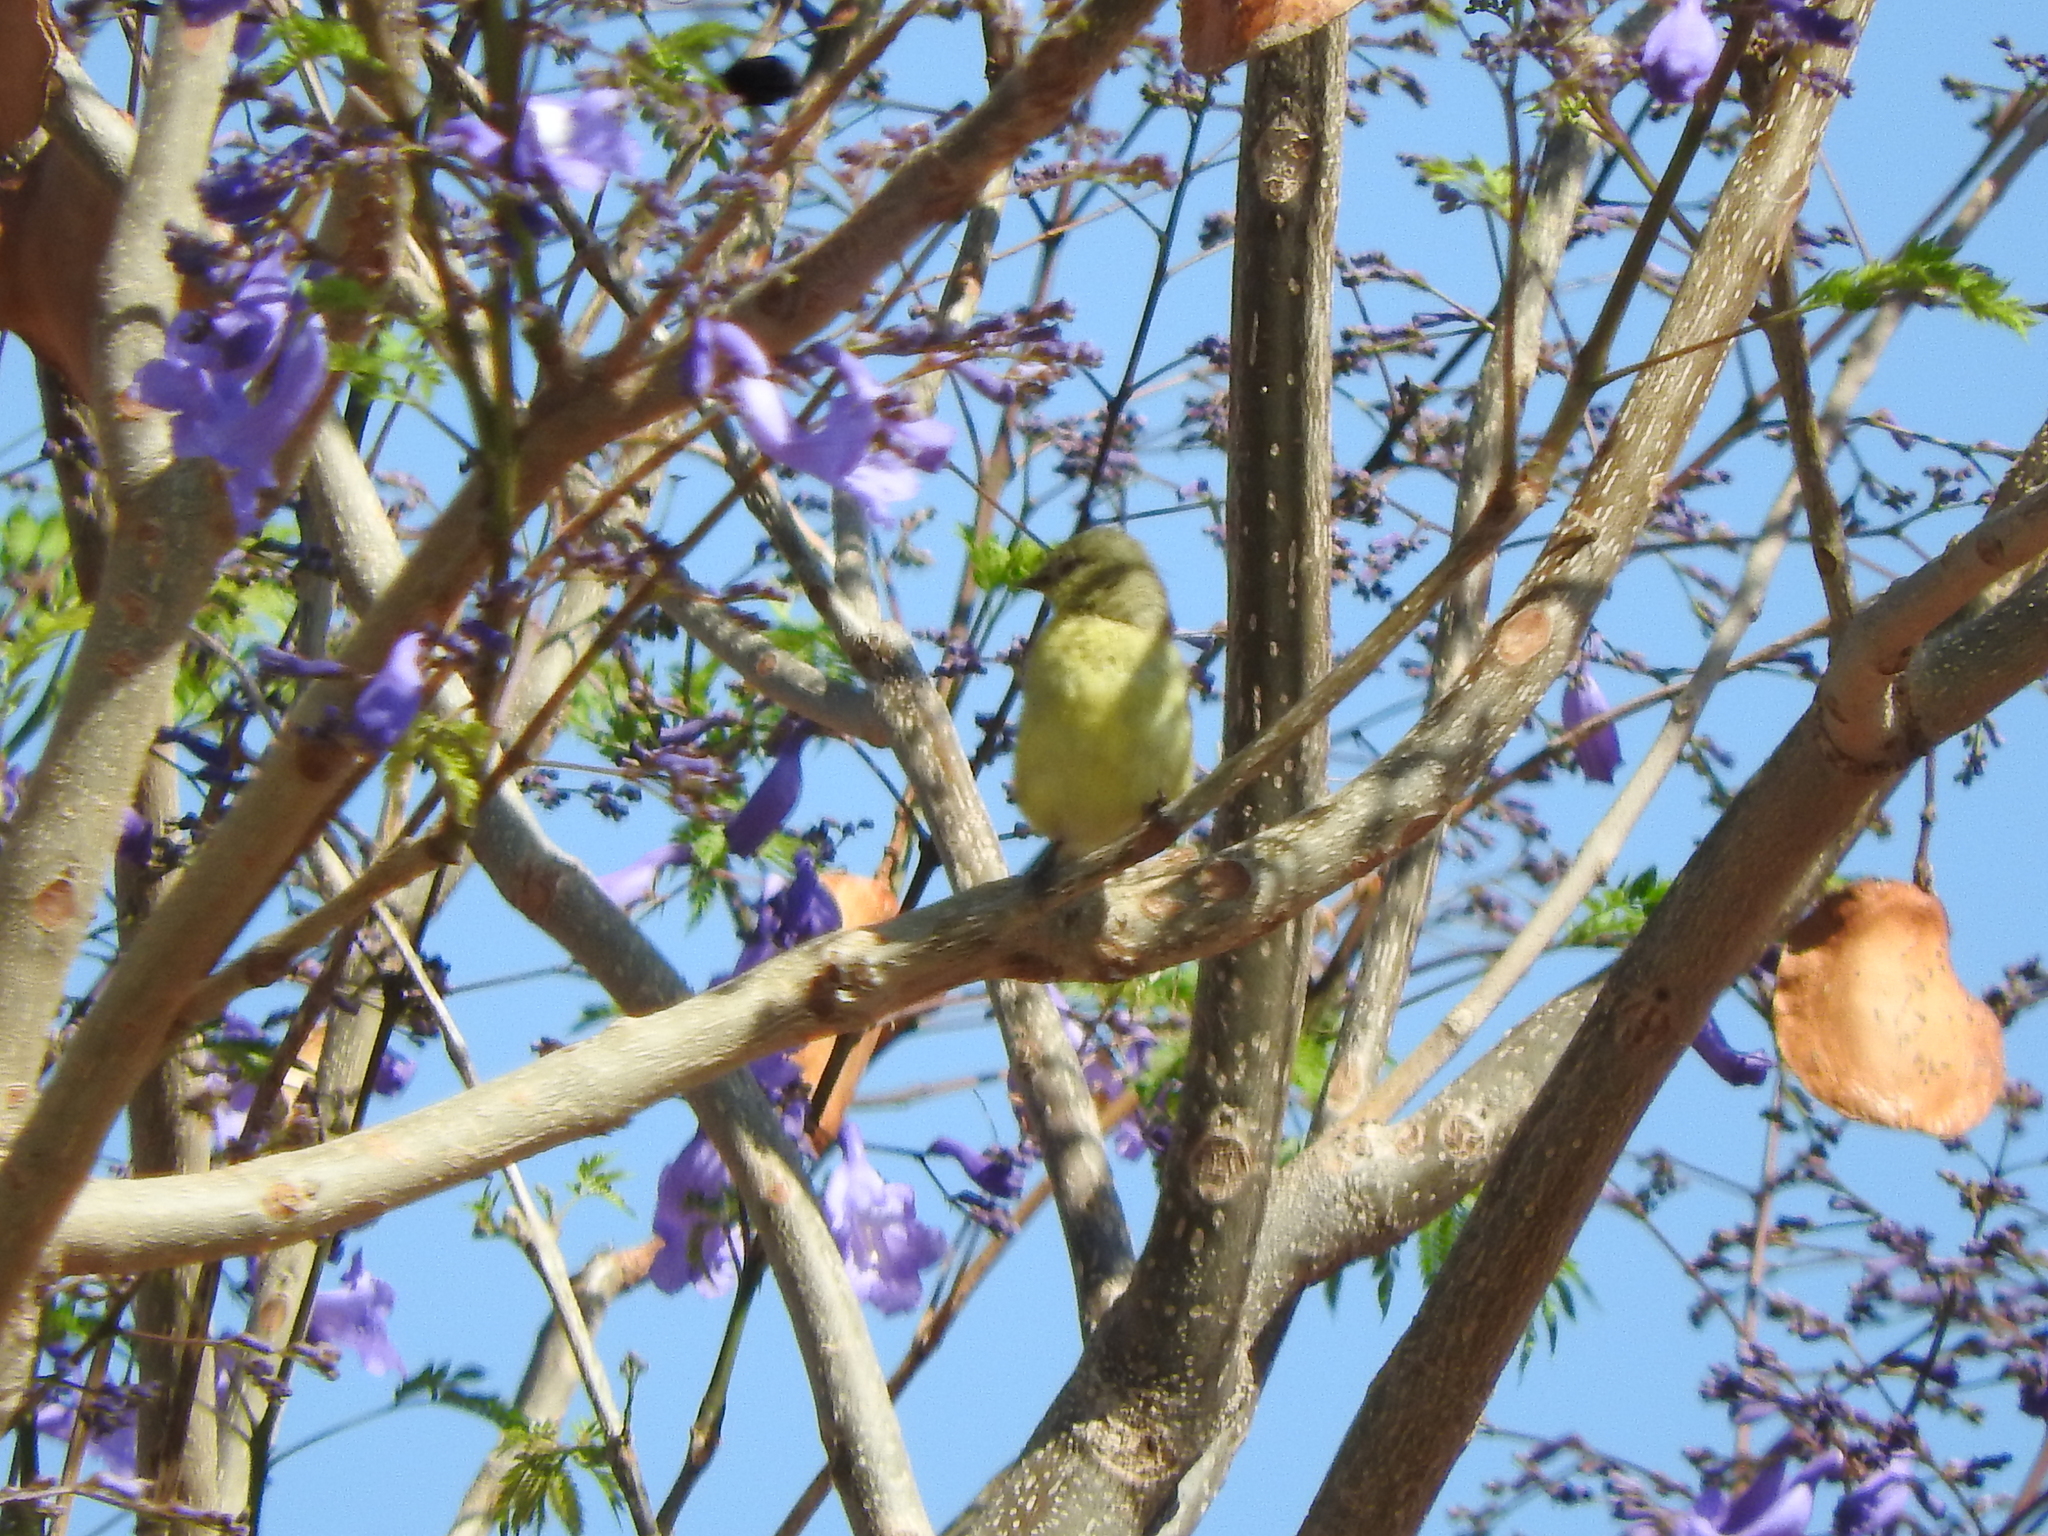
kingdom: Animalia
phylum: Chordata
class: Aves
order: Passeriformes
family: Fringillidae
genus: Spinus
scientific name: Spinus psaltria
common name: Lesser goldfinch
